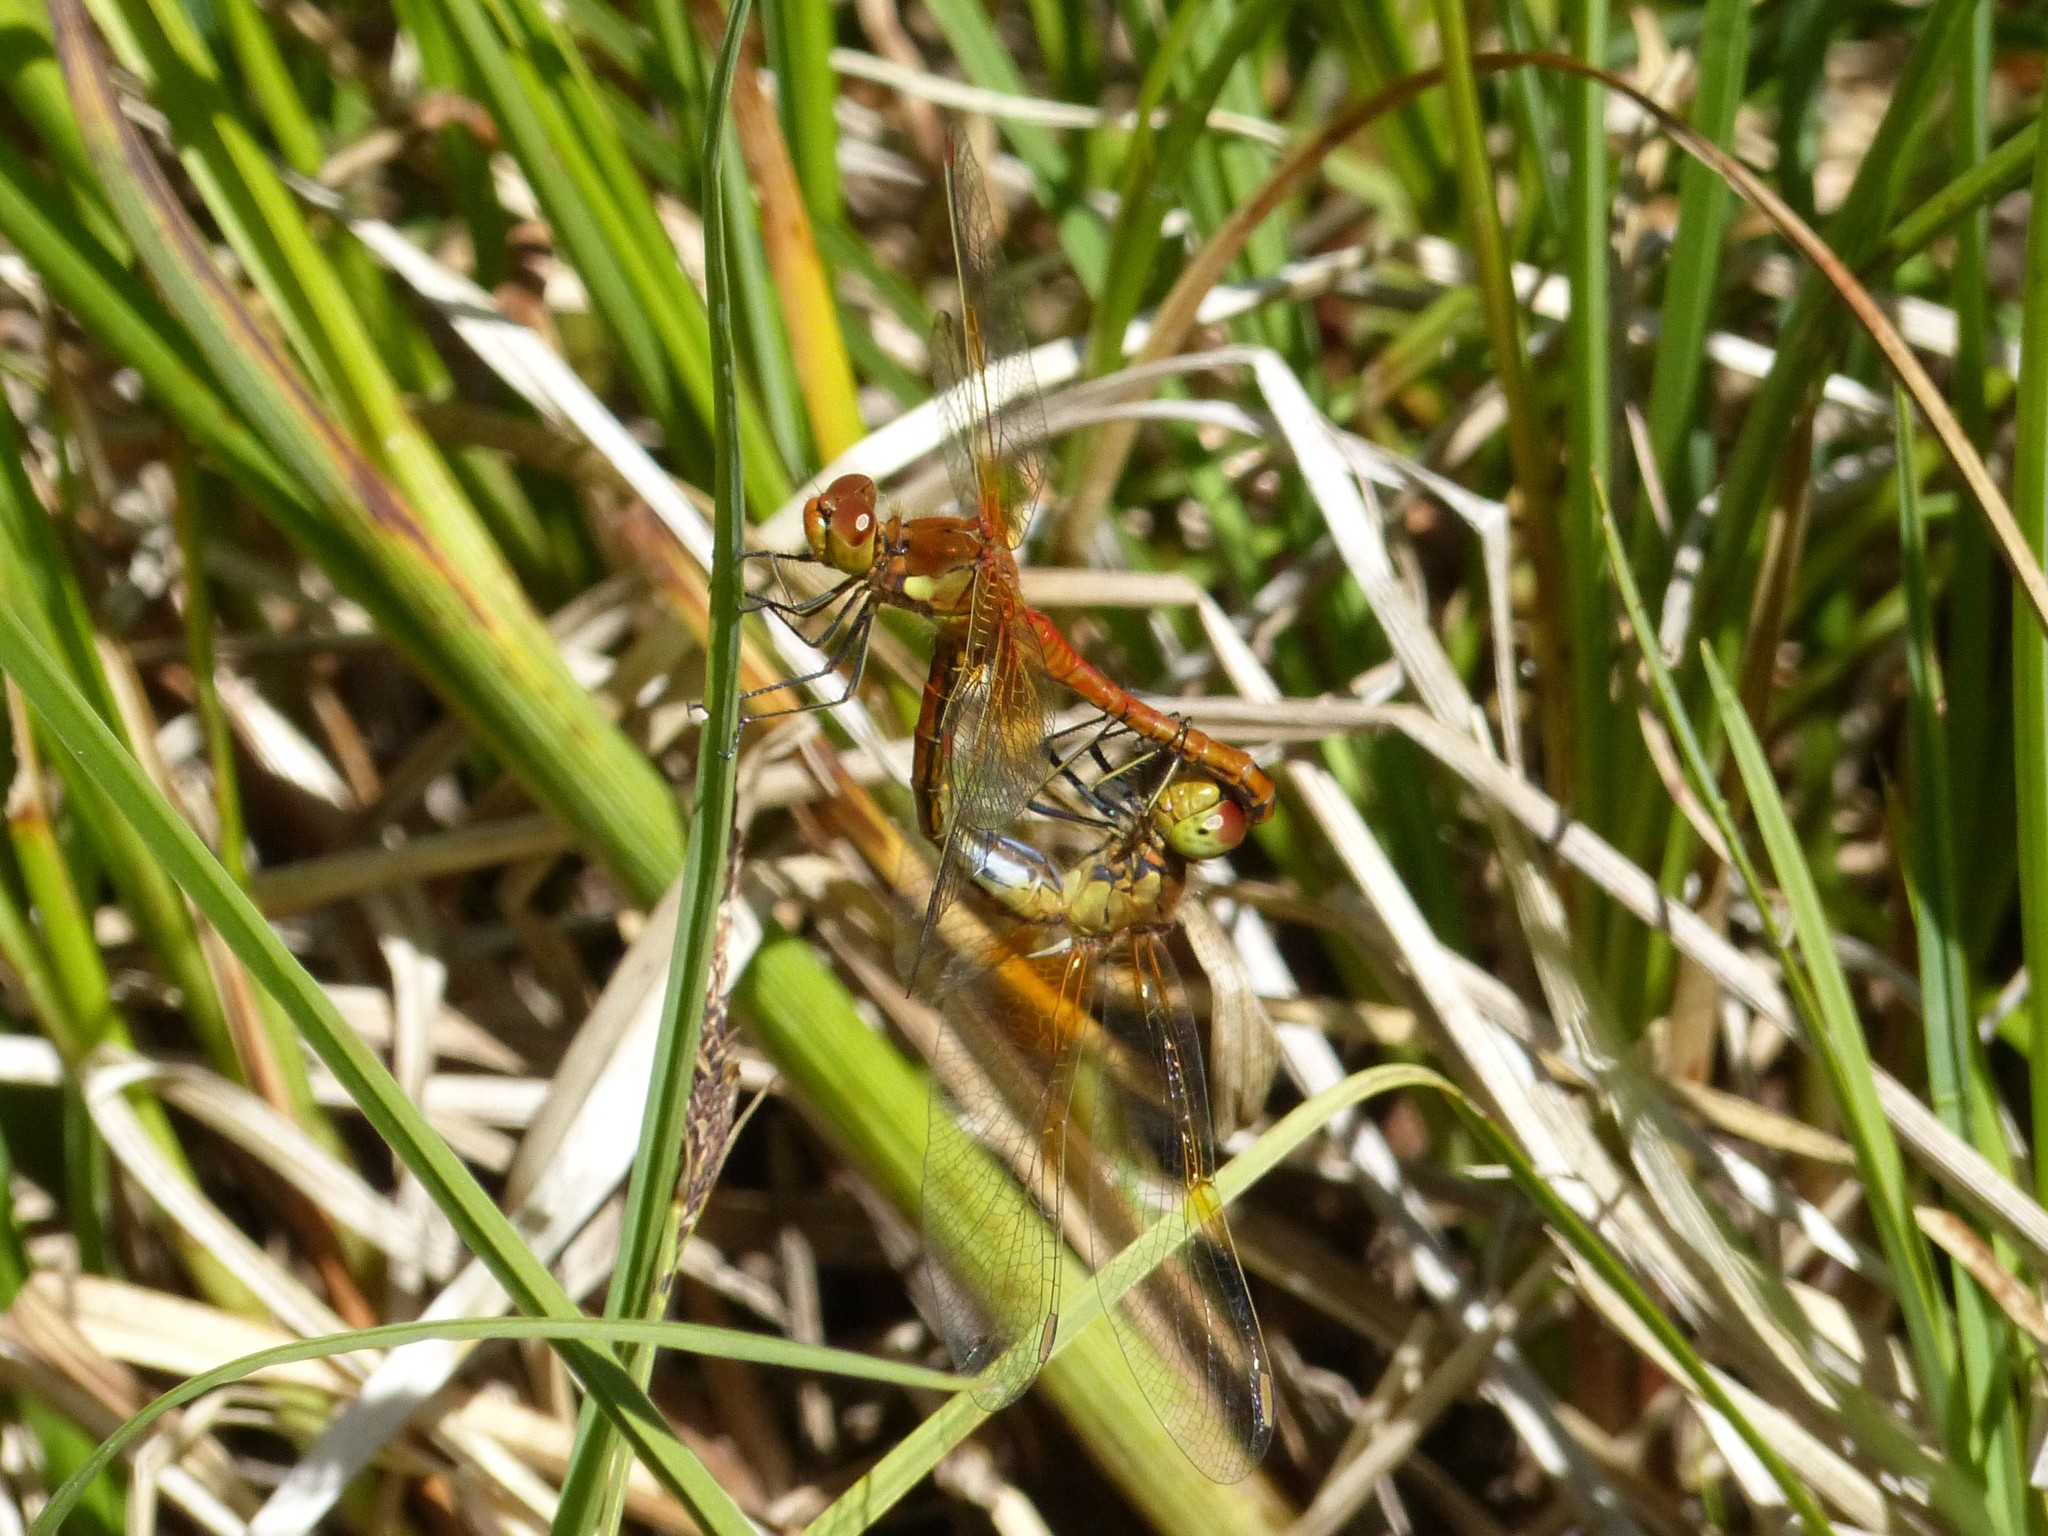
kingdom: Animalia
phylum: Arthropoda
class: Insecta
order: Odonata
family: Libellulidae
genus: Sympetrum
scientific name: Sympetrum flaveolum
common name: Yellow-winged darter
